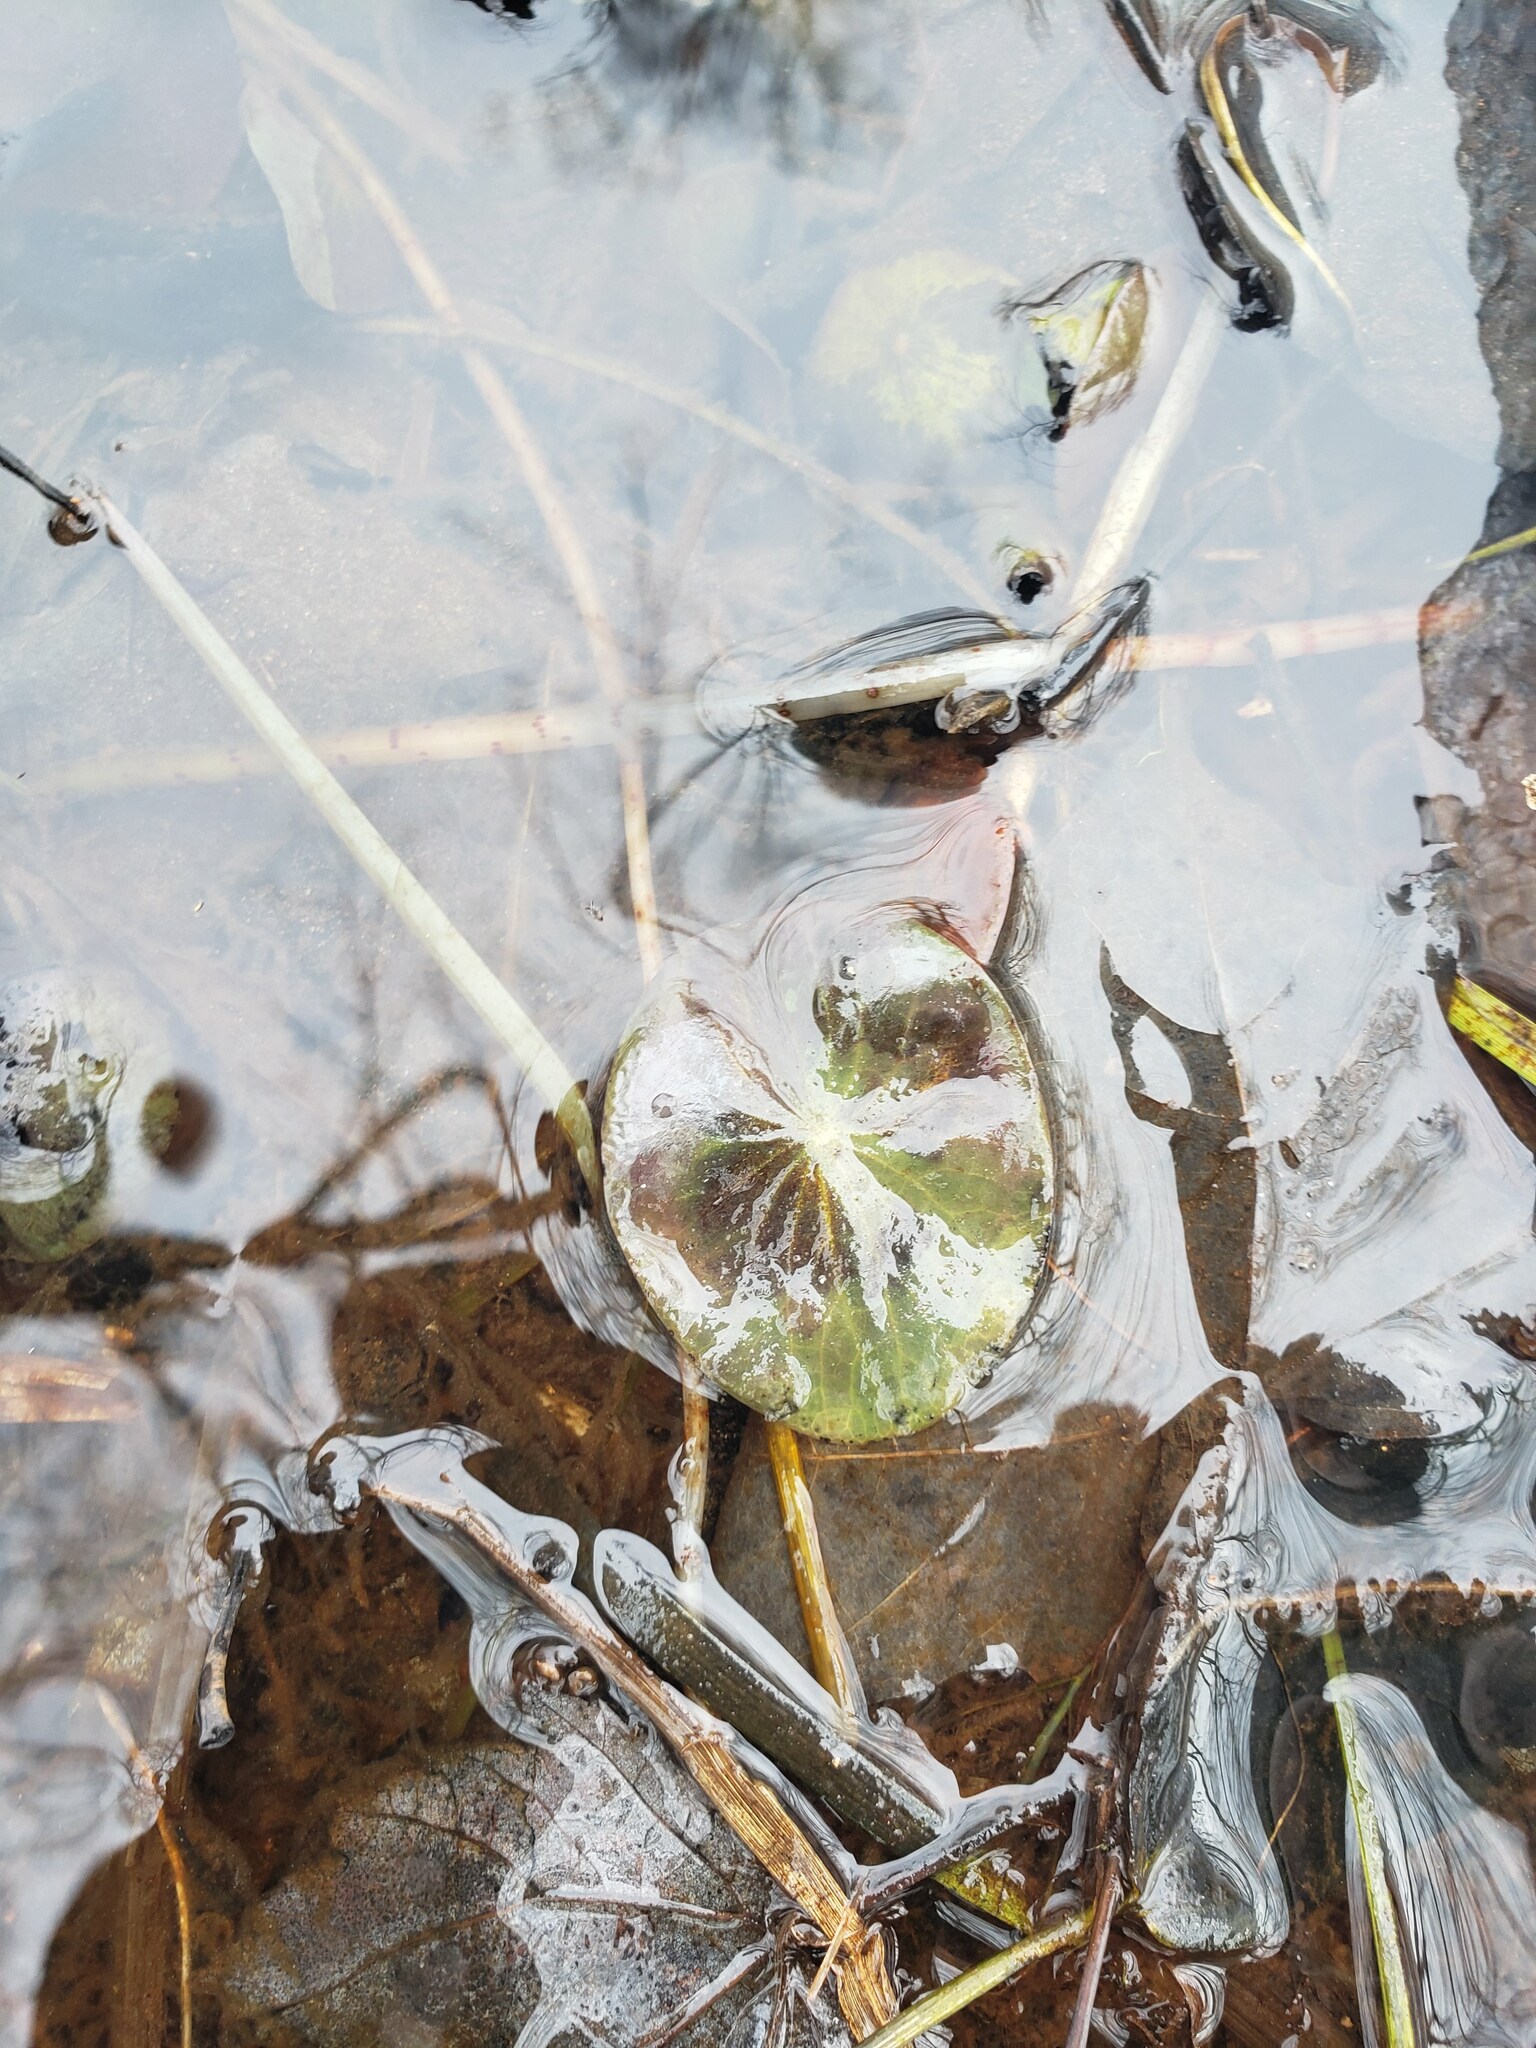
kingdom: Plantae
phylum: Tracheophyta
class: Magnoliopsida
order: Nymphaeales
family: Cabombaceae
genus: Brasenia
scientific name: Brasenia schreberi
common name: Water-shield
